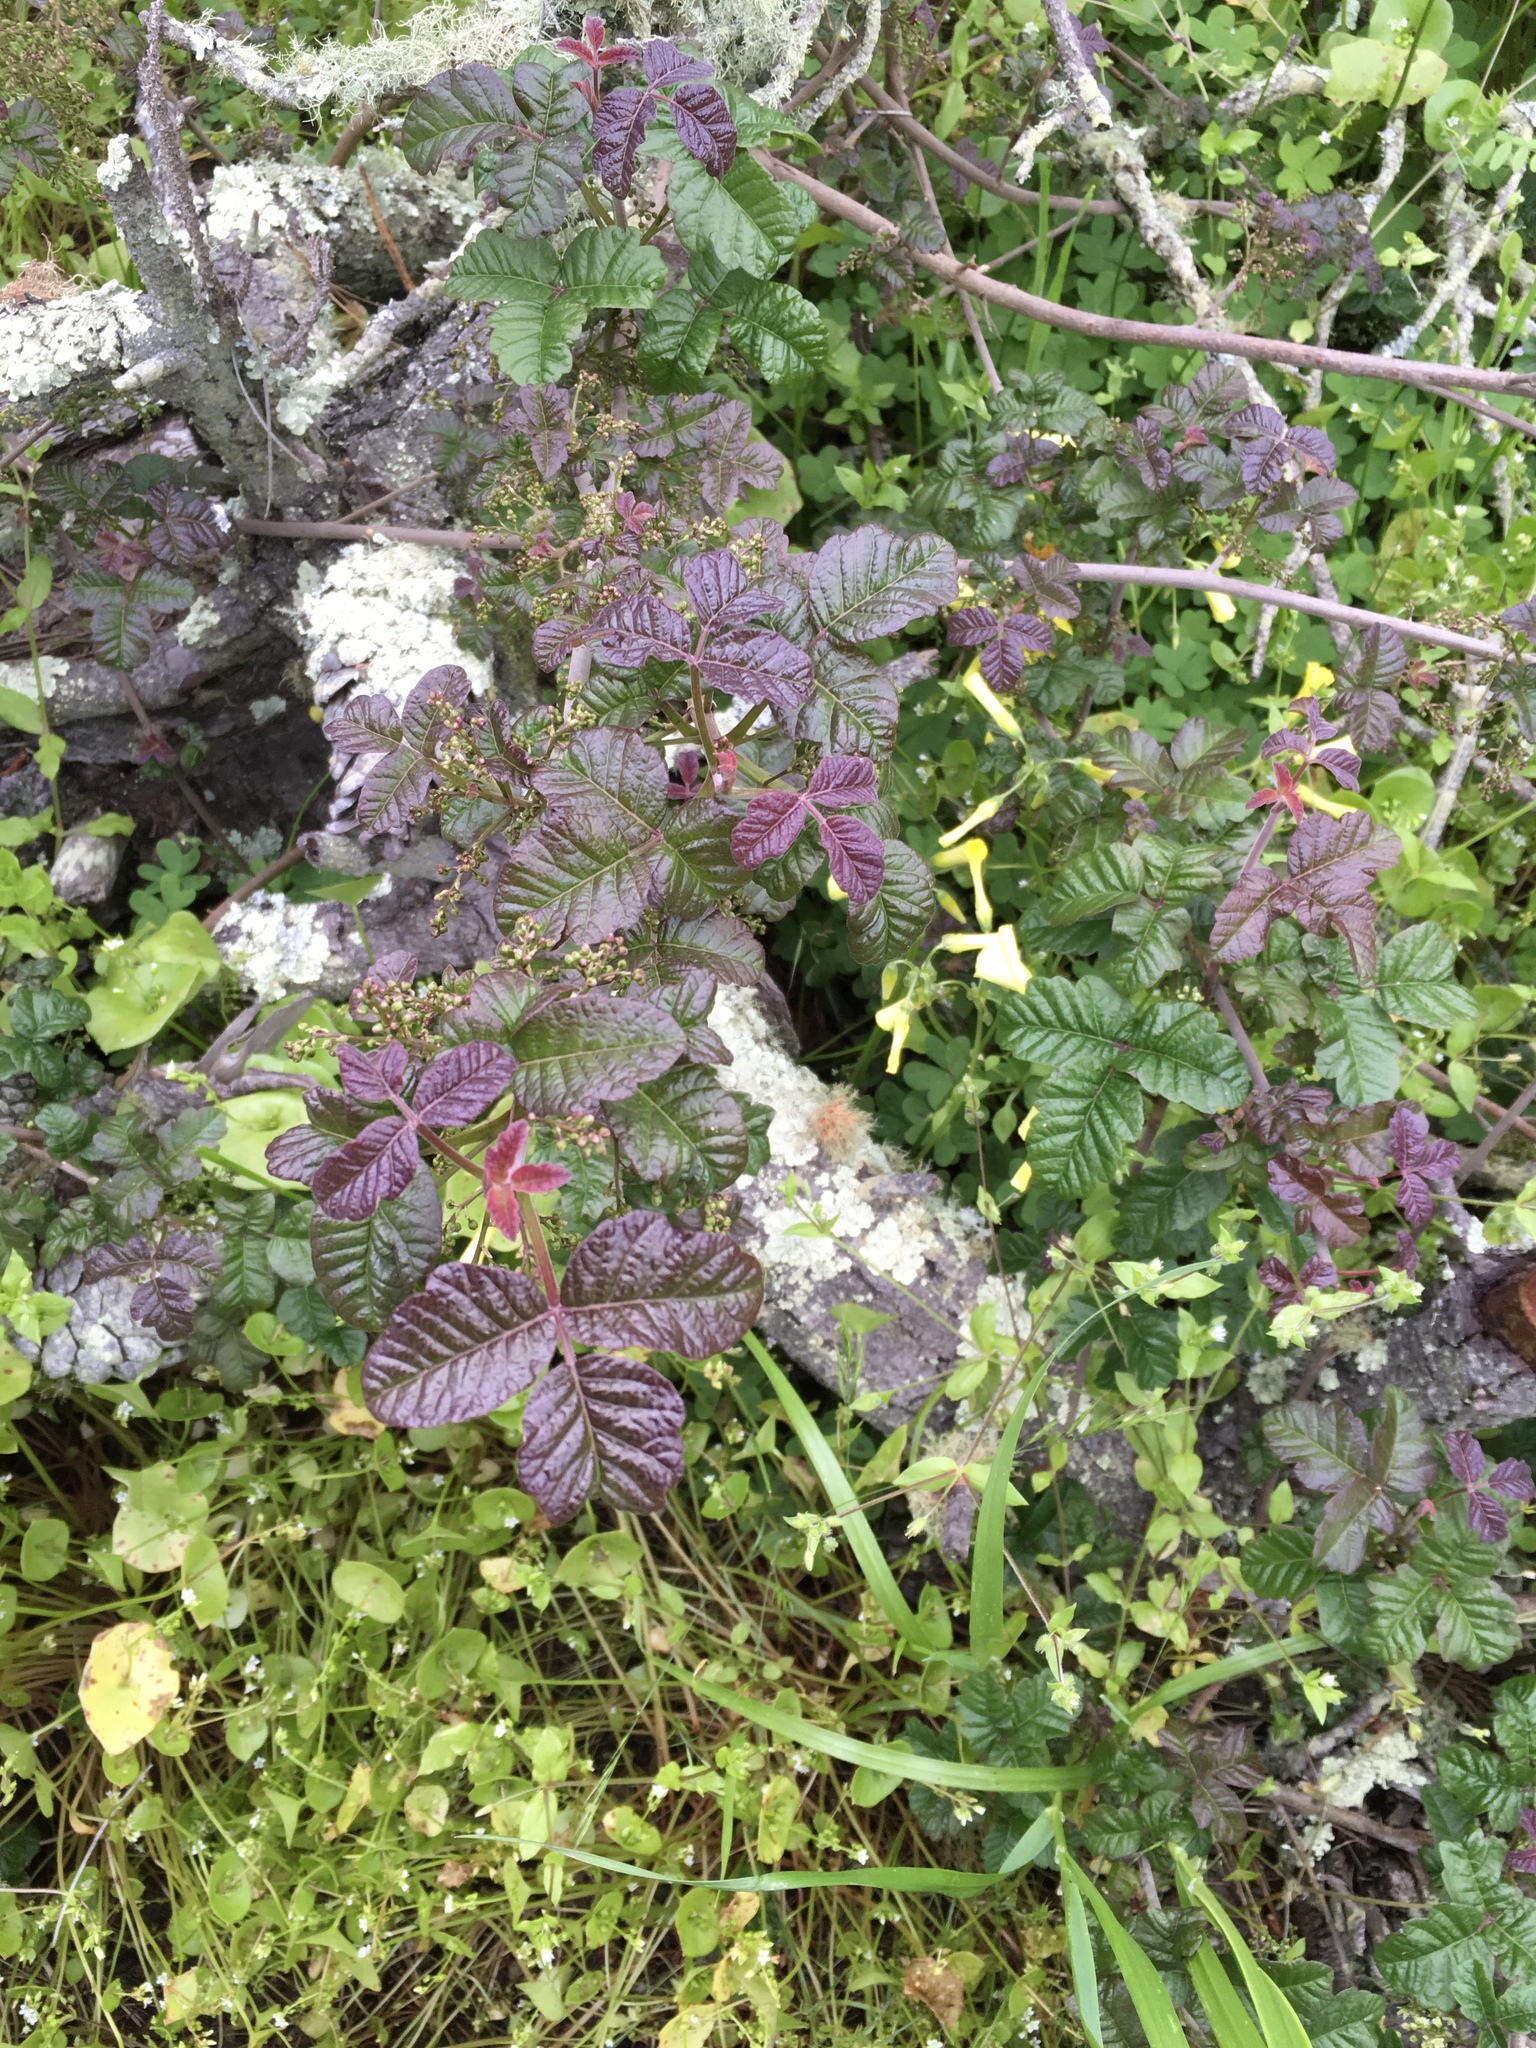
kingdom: Plantae
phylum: Tracheophyta
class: Magnoliopsida
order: Sapindales
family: Anacardiaceae
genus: Toxicodendron
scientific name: Toxicodendron diversilobum
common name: Pacific poison-oak
